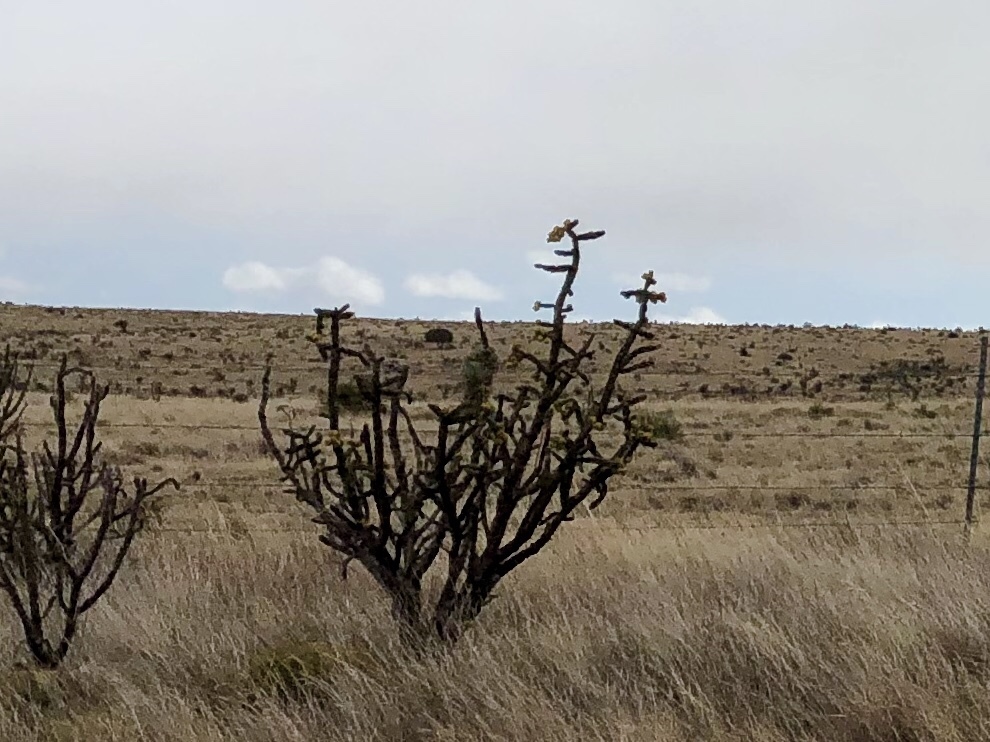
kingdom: Plantae
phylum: Tracheophyta
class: Magnoliopsida
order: Caryophyllales
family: Cactaceae
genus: Cylindropuntia
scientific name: Cylindropuntia imbricata
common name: Candelabrum cactus
